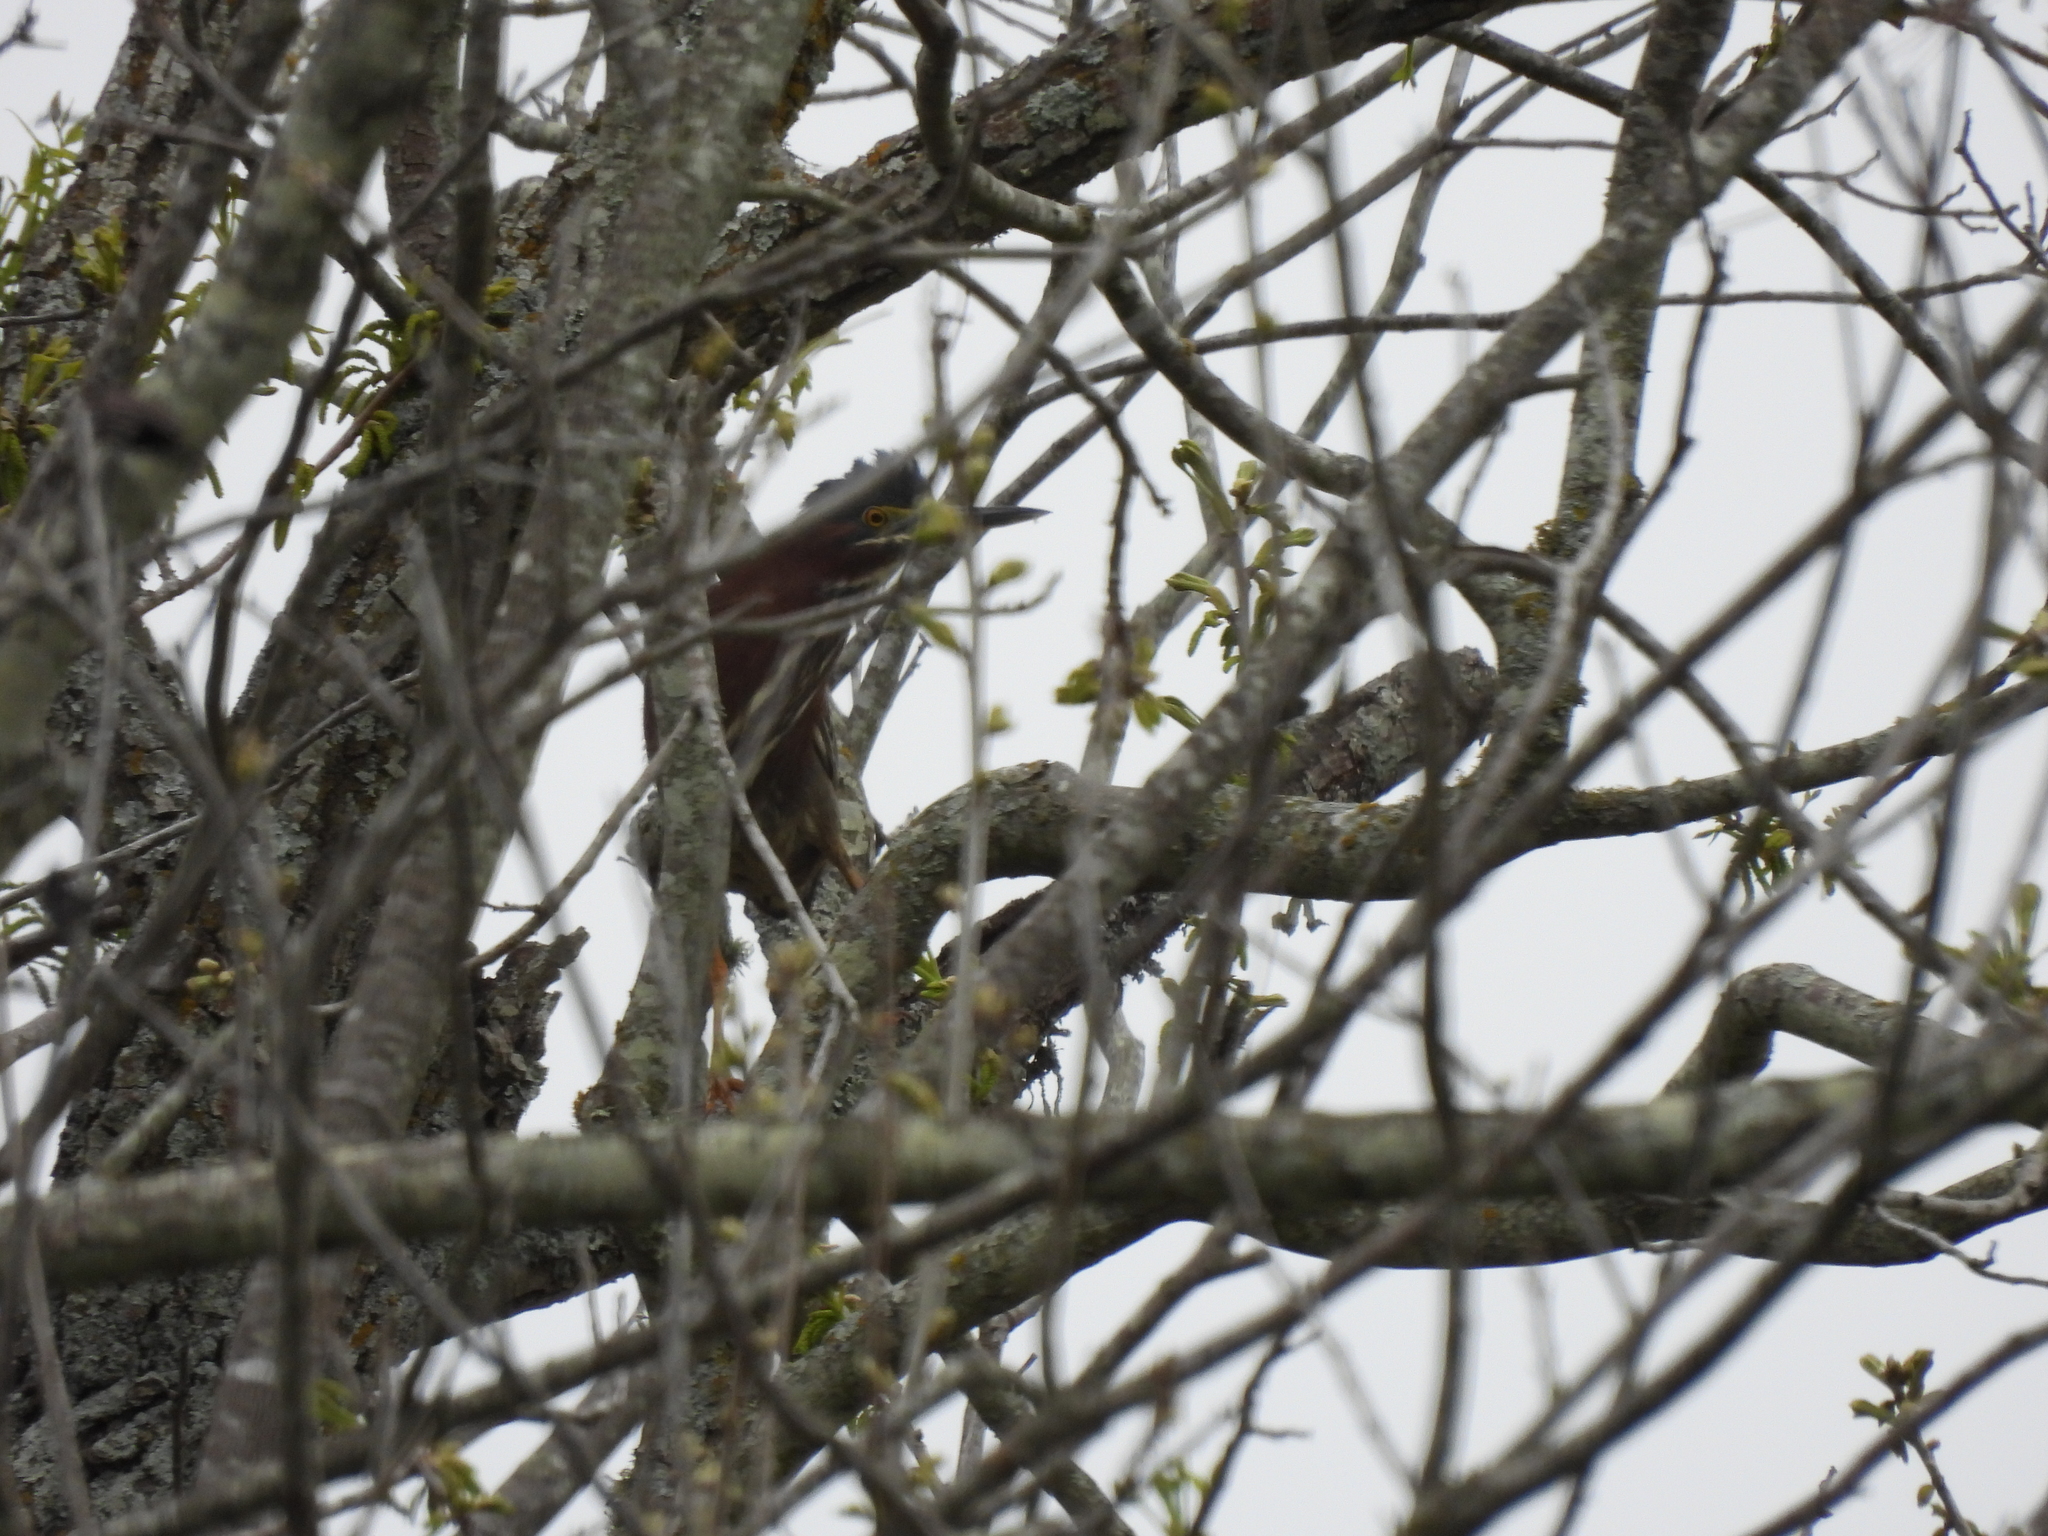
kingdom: Animalia
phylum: Chordata
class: Aves
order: Pelecaniformes
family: Ardeidae
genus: Butorides
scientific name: Butorides virescens
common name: Green heron
